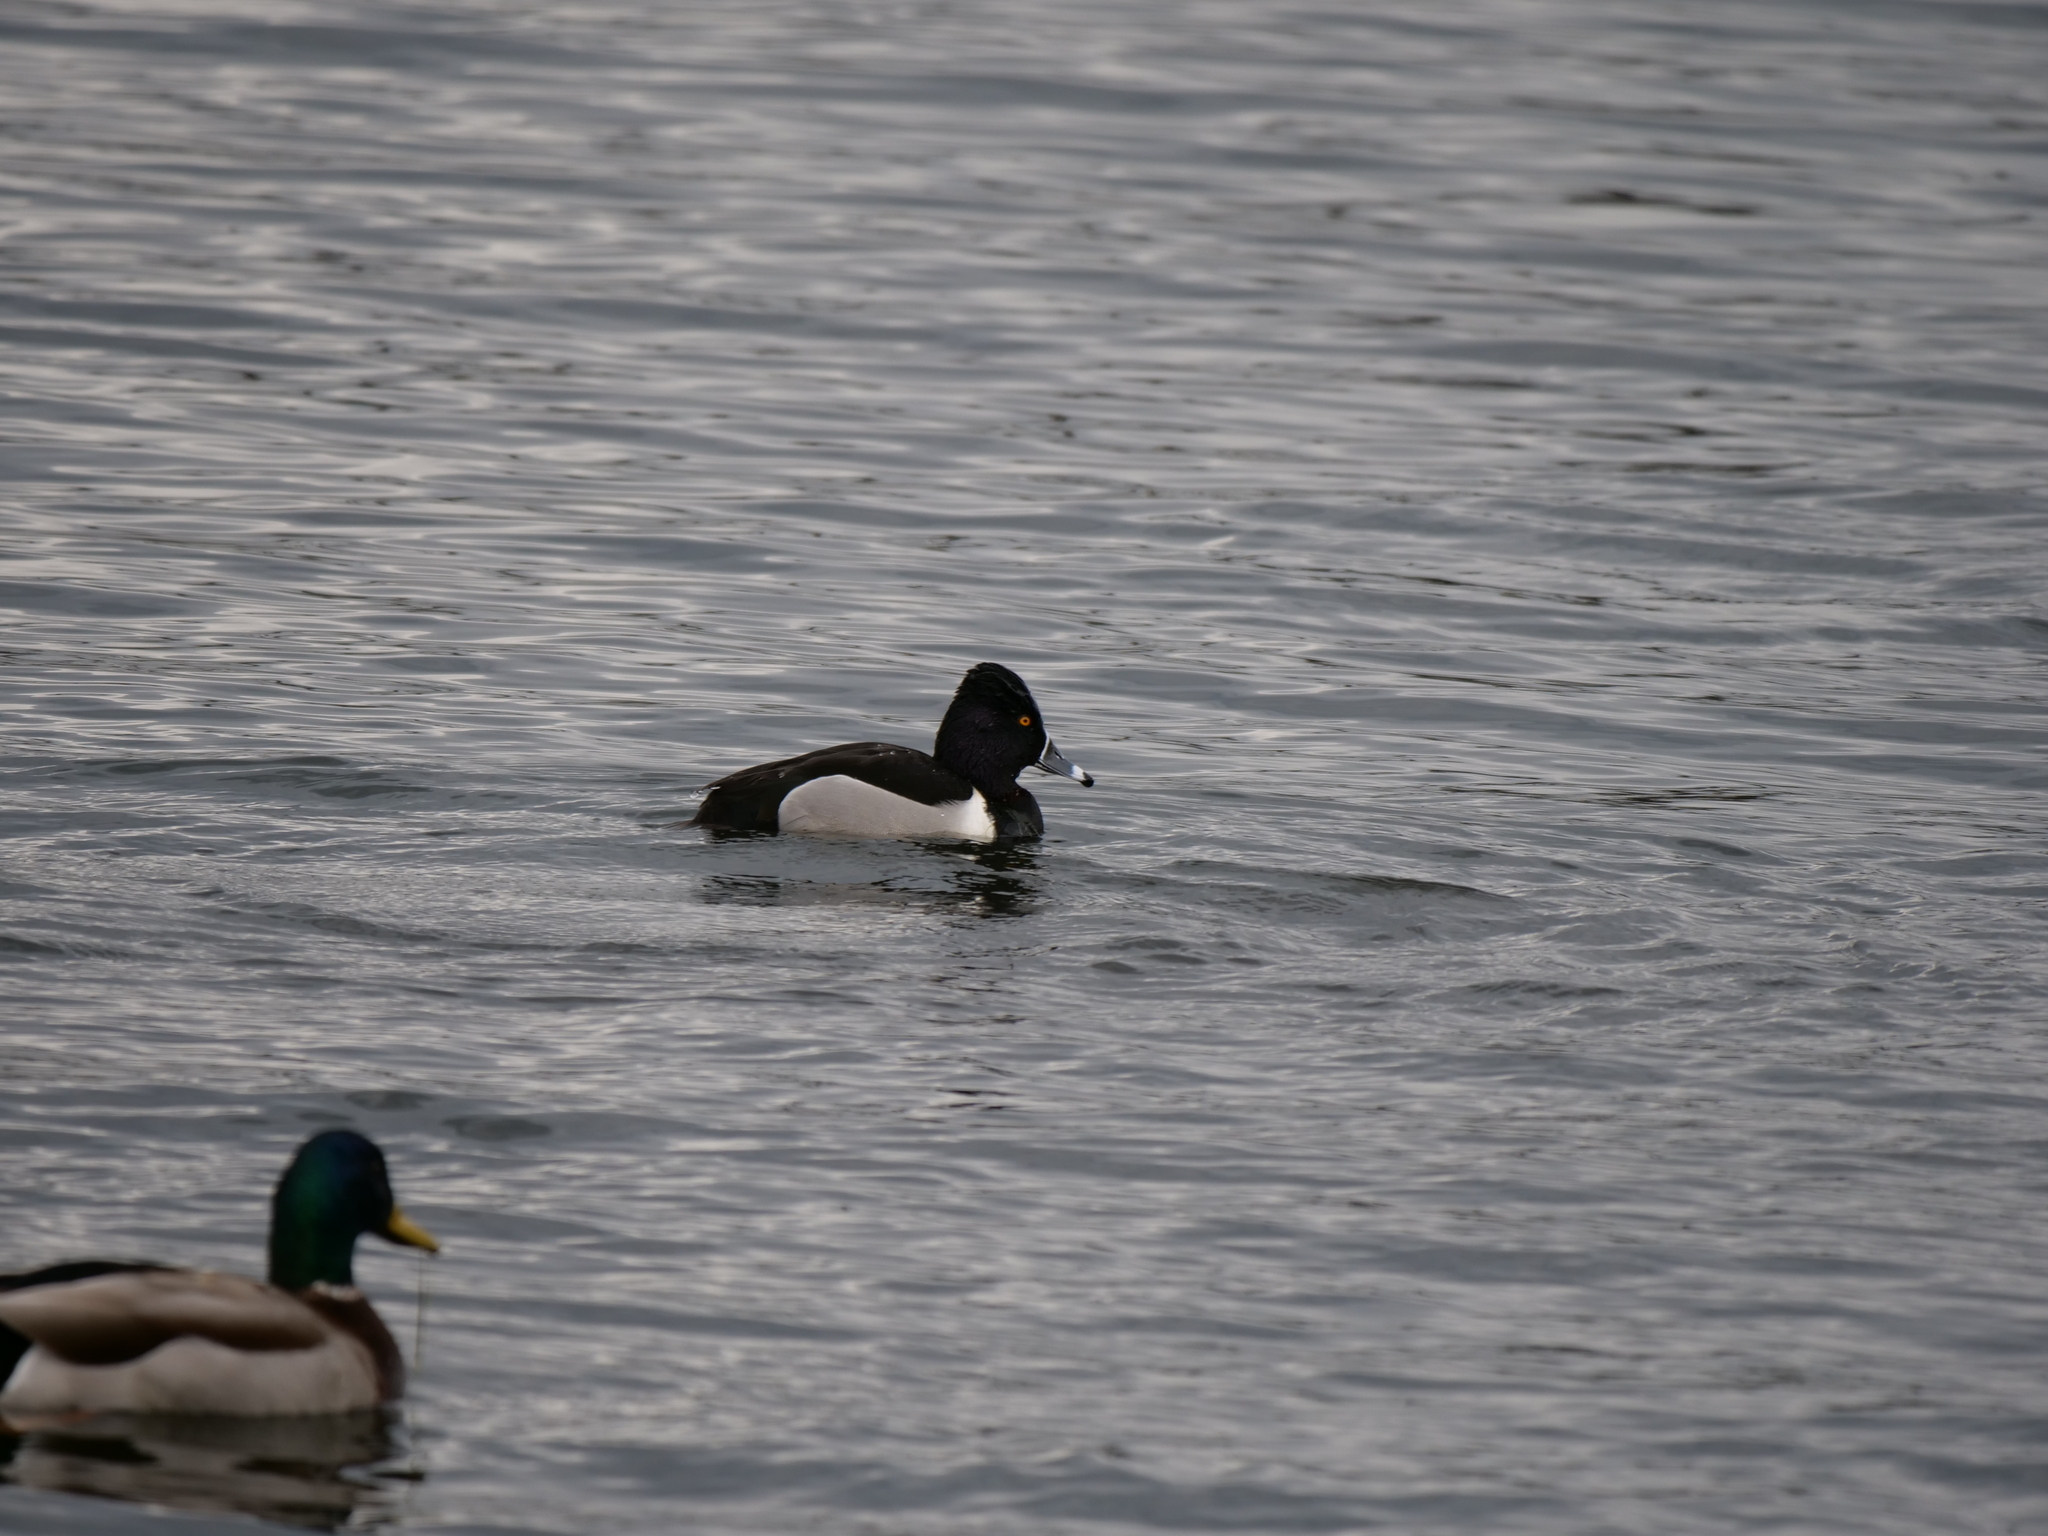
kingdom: Animalia
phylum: Chordata
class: Aves
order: Anseriformes
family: Anatidae
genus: Aythya
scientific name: Aythya collaris
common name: Ring-necked duck
